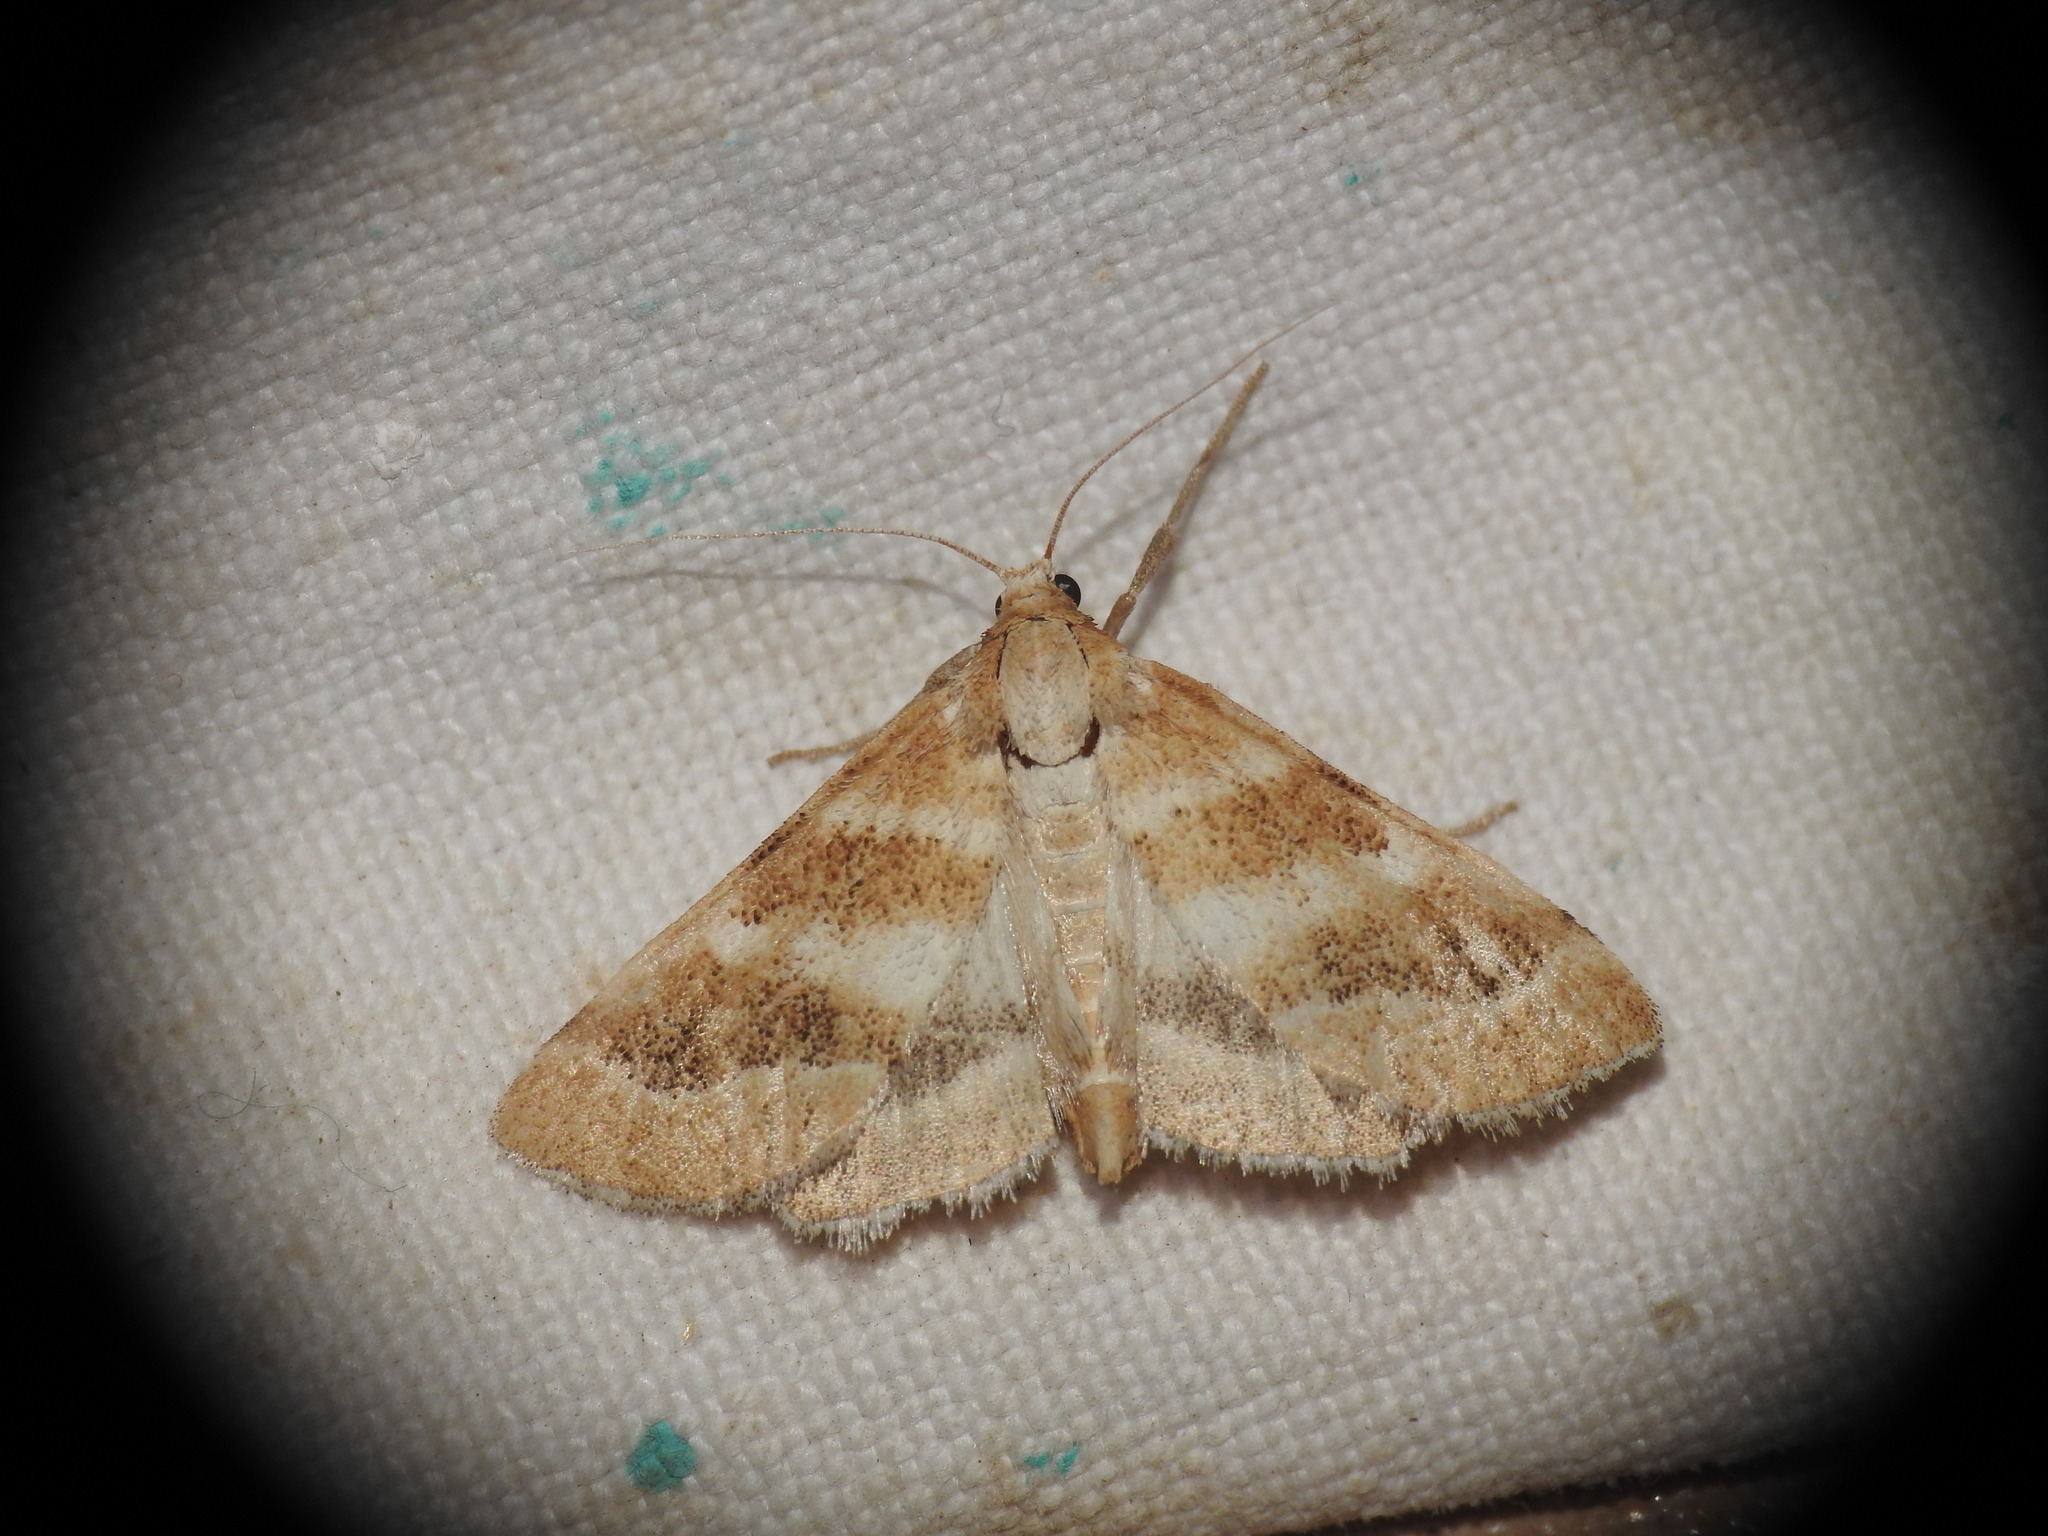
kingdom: Animalia
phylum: Arthropoda
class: Insecta
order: Lepidoptera
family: Crambidae
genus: Metasia
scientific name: Metasia suppandalis
